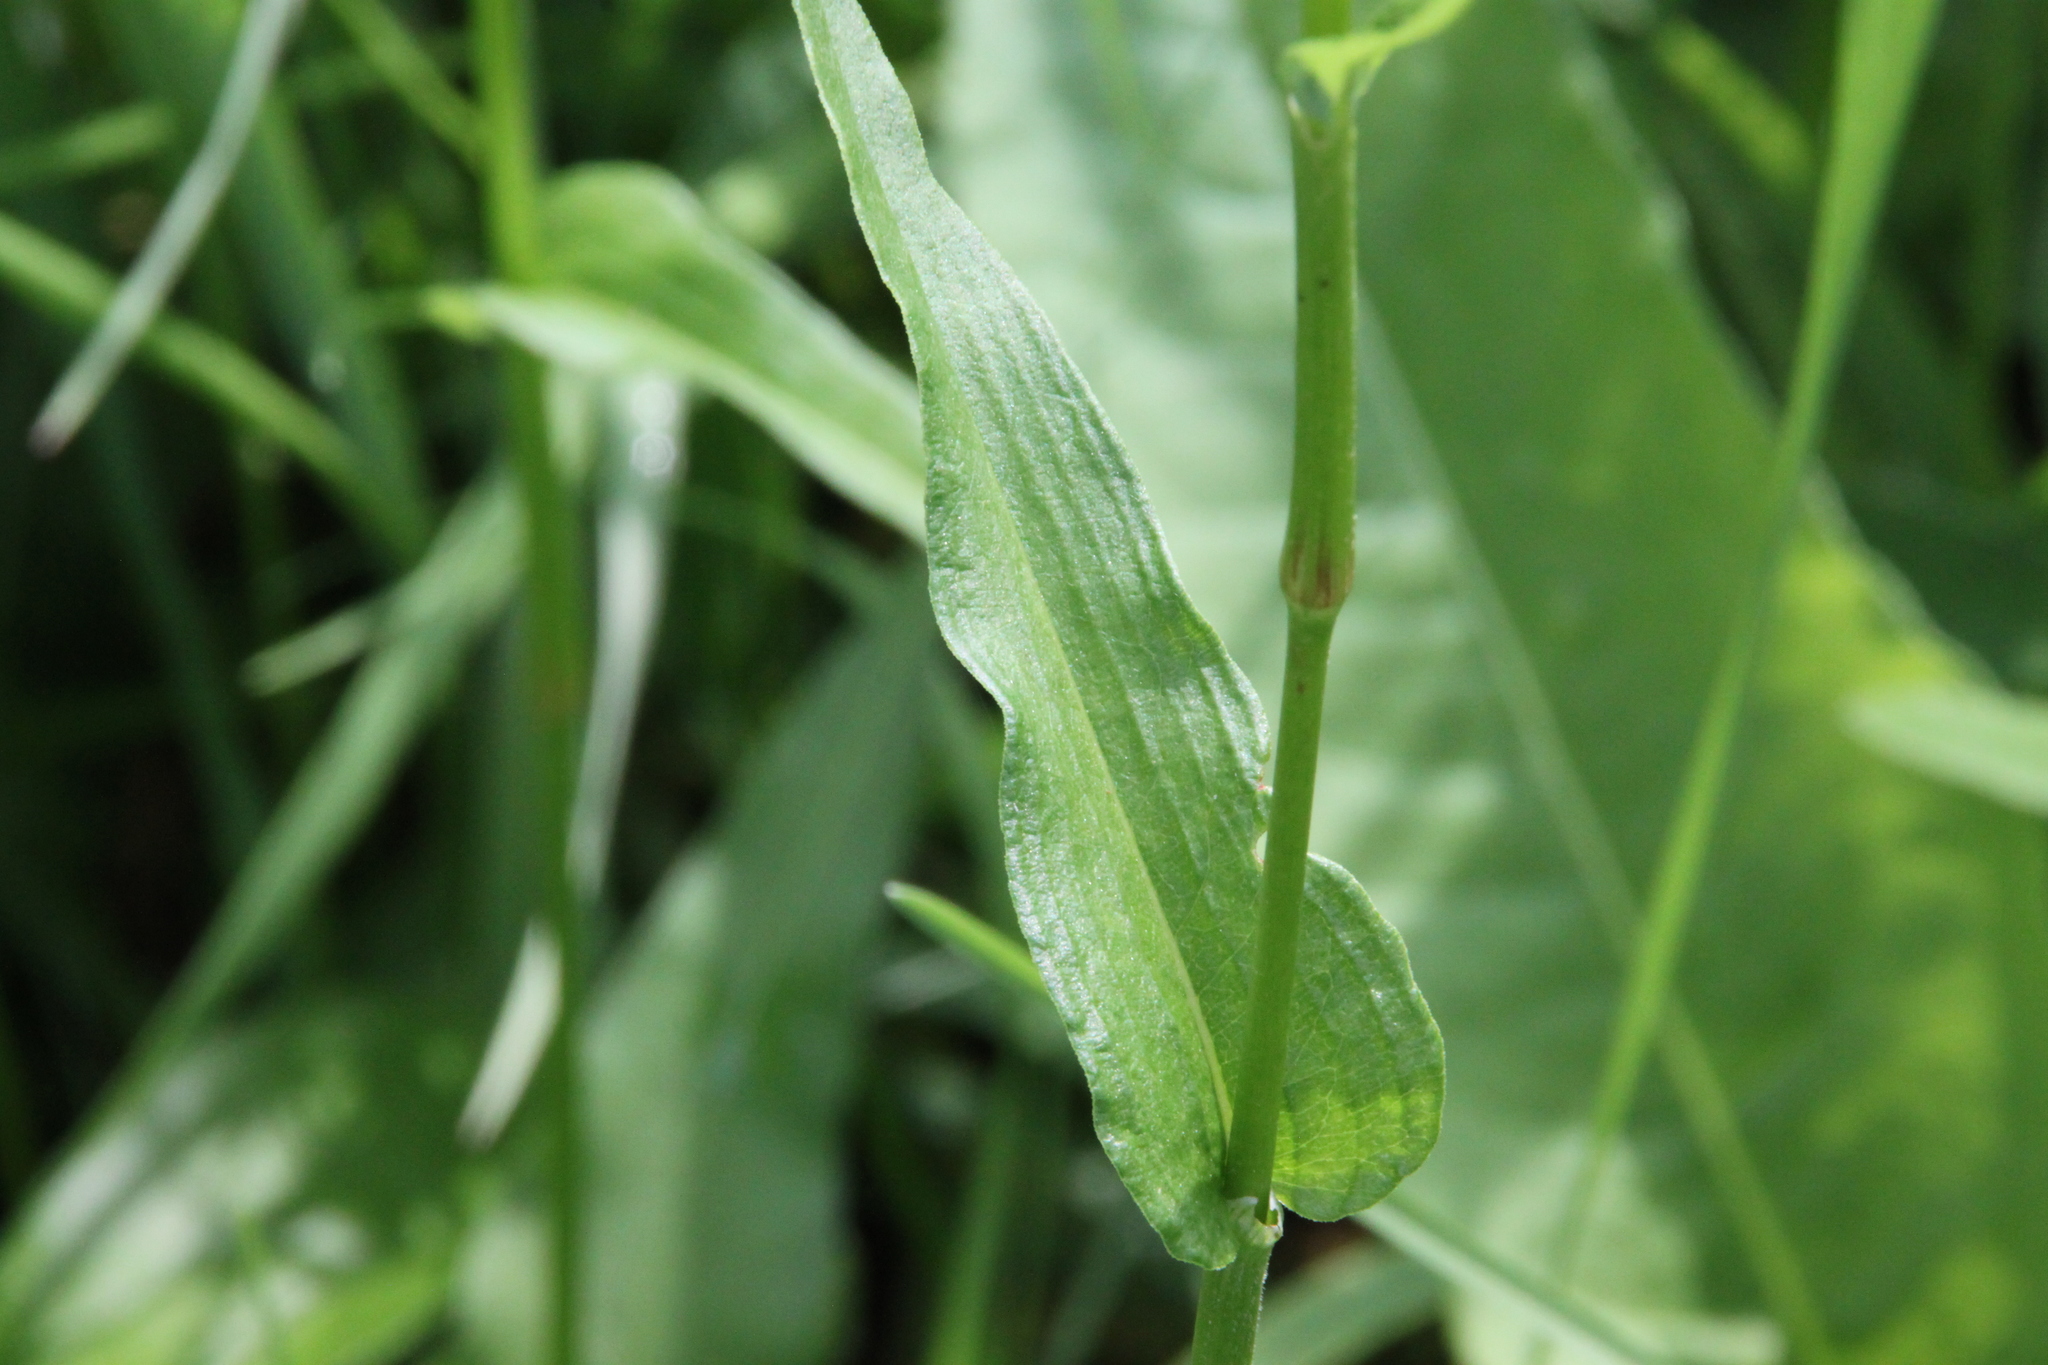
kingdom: Plantae
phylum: Tracheophyta
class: Magnoliopsida
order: Caryophyllales
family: Polygonaceae
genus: Bistorta
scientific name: Bistorta officinalis
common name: Common bistort
